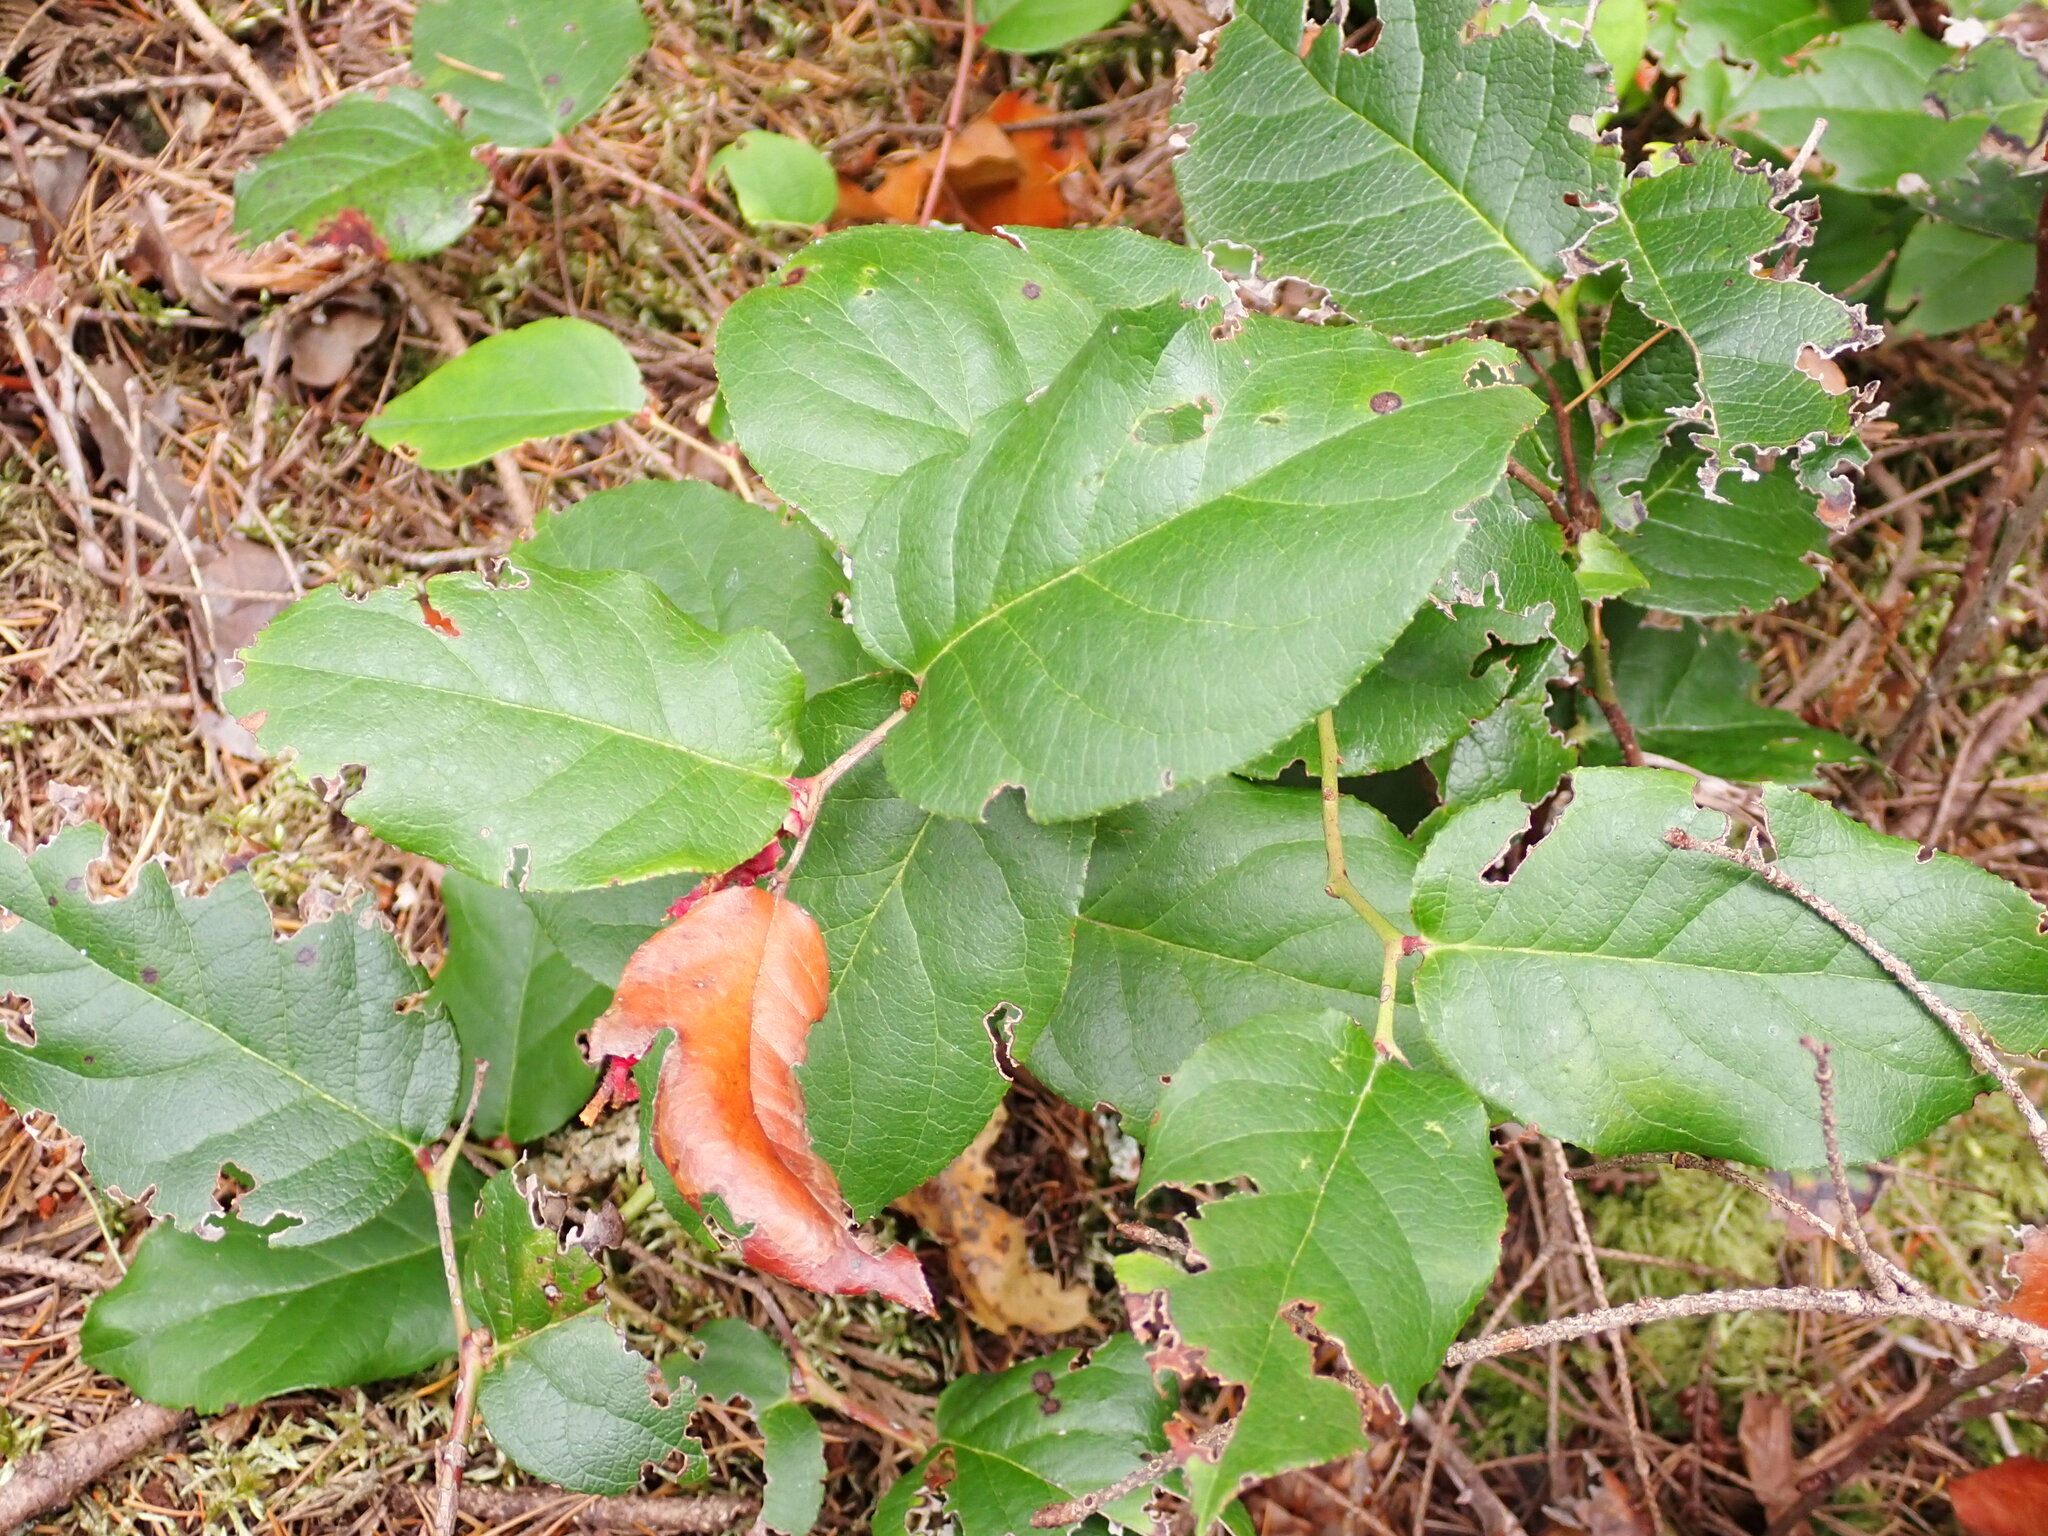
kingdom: Plantae
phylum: Tracheophyta
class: Magnoliopsida
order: Ericales
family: Ericaceae
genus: Gaultheria
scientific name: Gaultheria shallon
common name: Shallon
